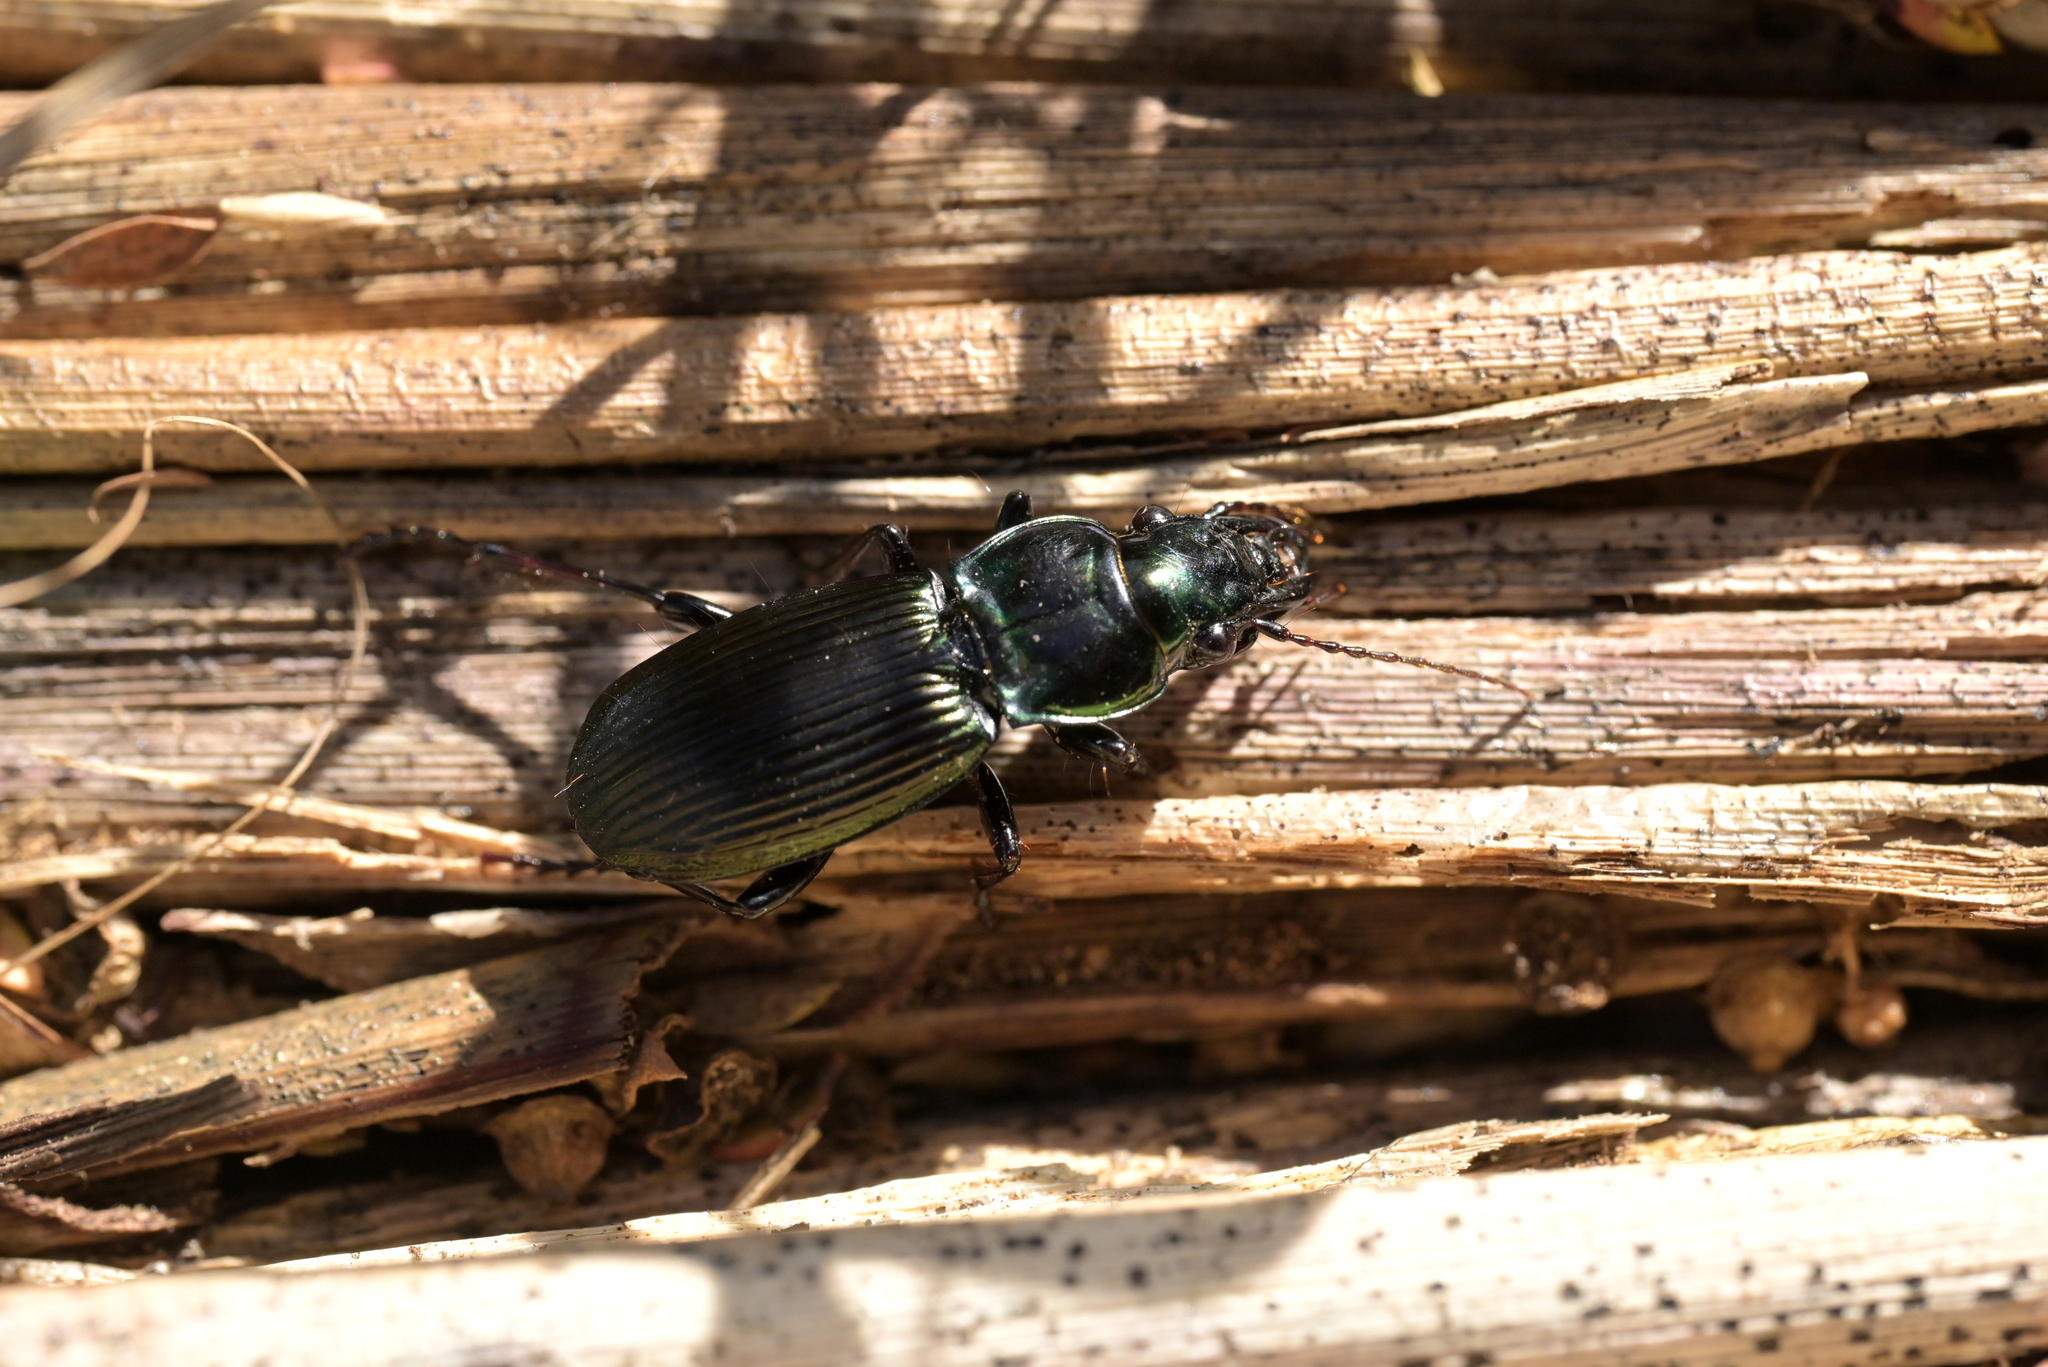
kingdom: Animalia
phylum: Arthropoda
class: Insecta
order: Coleoptera
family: Carabidae
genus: Megadromus
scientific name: Megadromus capito
